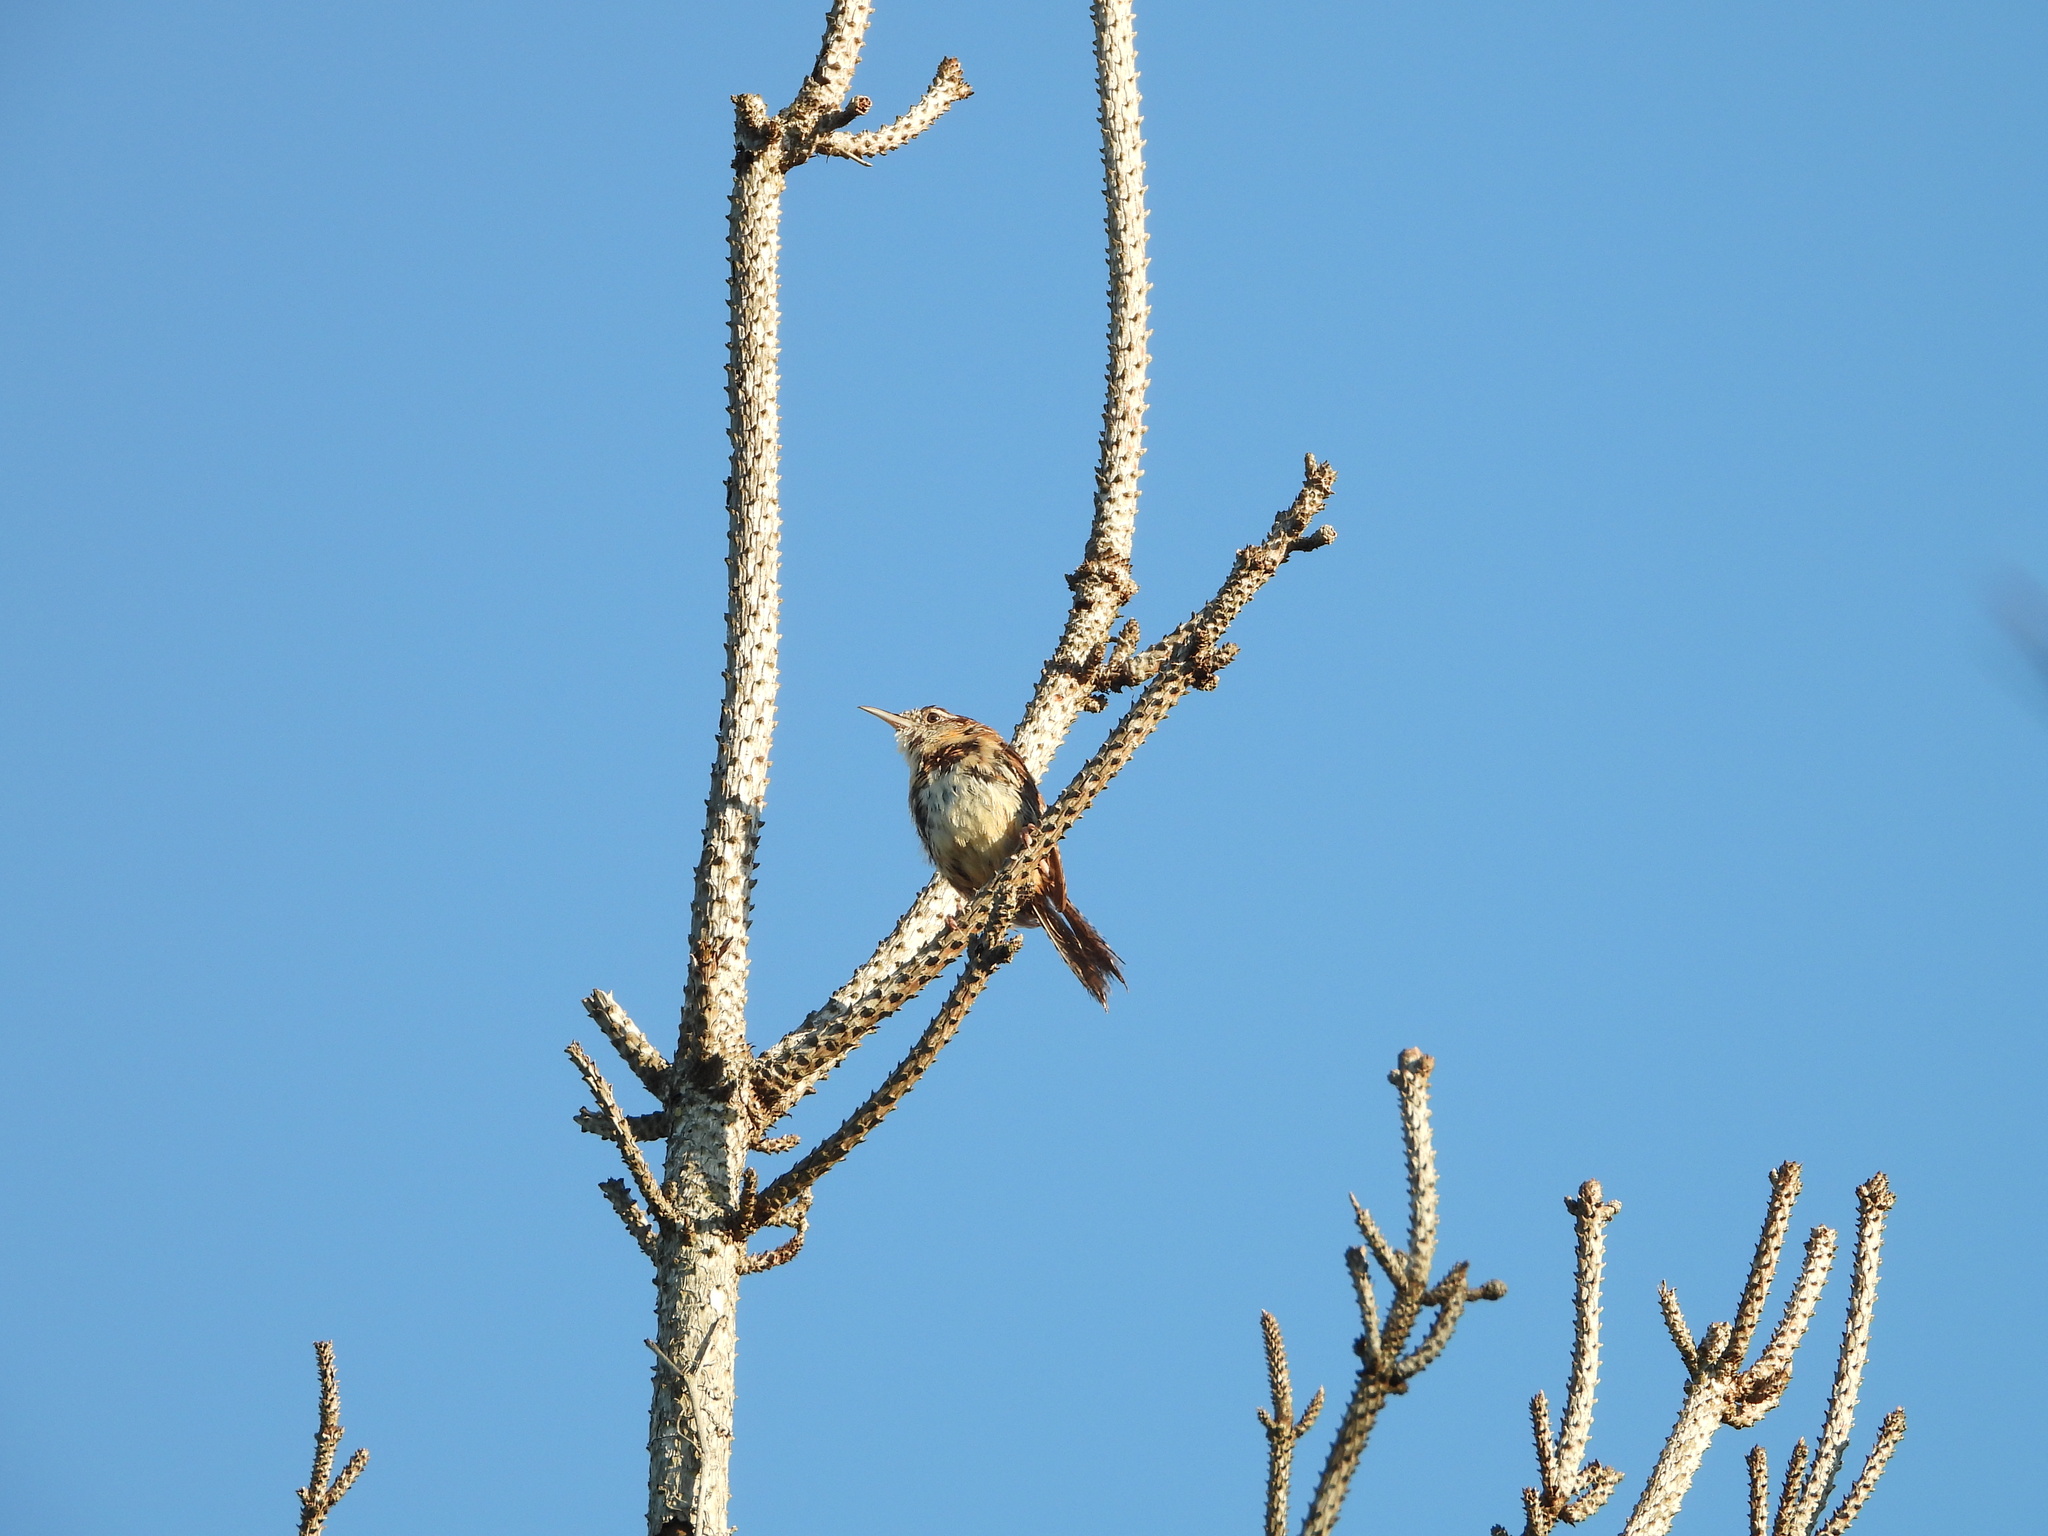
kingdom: Animalia
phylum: Chordata
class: Aves
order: Passeriformes
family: Troglodytidae
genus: Thryothorus
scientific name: Thryothorus ludovicianus
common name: Carolina wren
